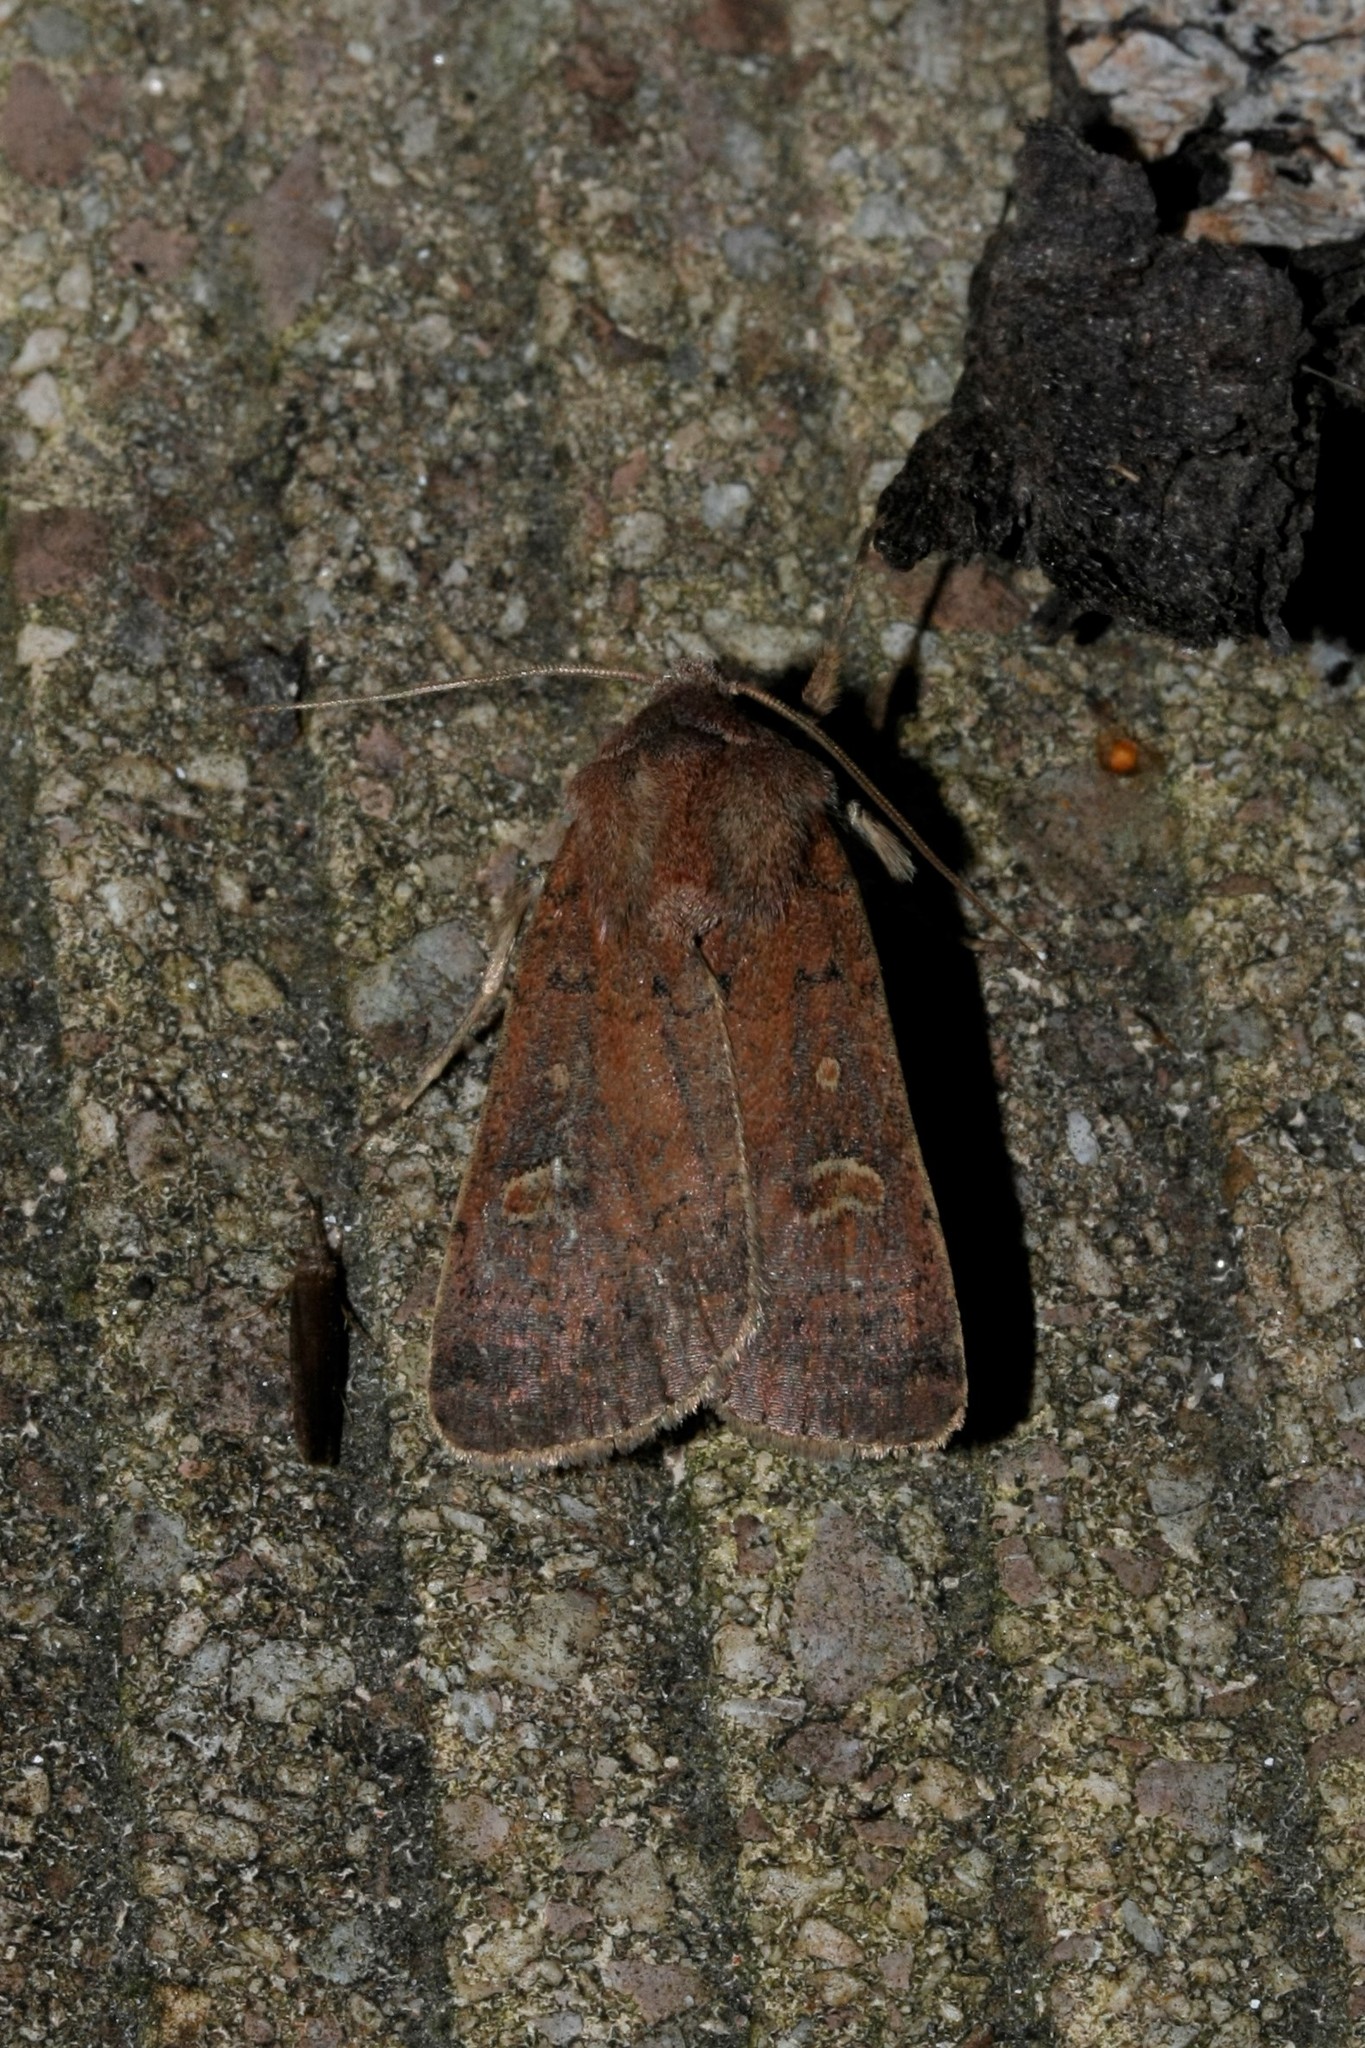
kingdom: Animalia
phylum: Arthropoda
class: Insecta
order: Lepidoptera
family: Noctuidae
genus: Xestia
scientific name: Xestia xanthographa
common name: Square-spot rustic
